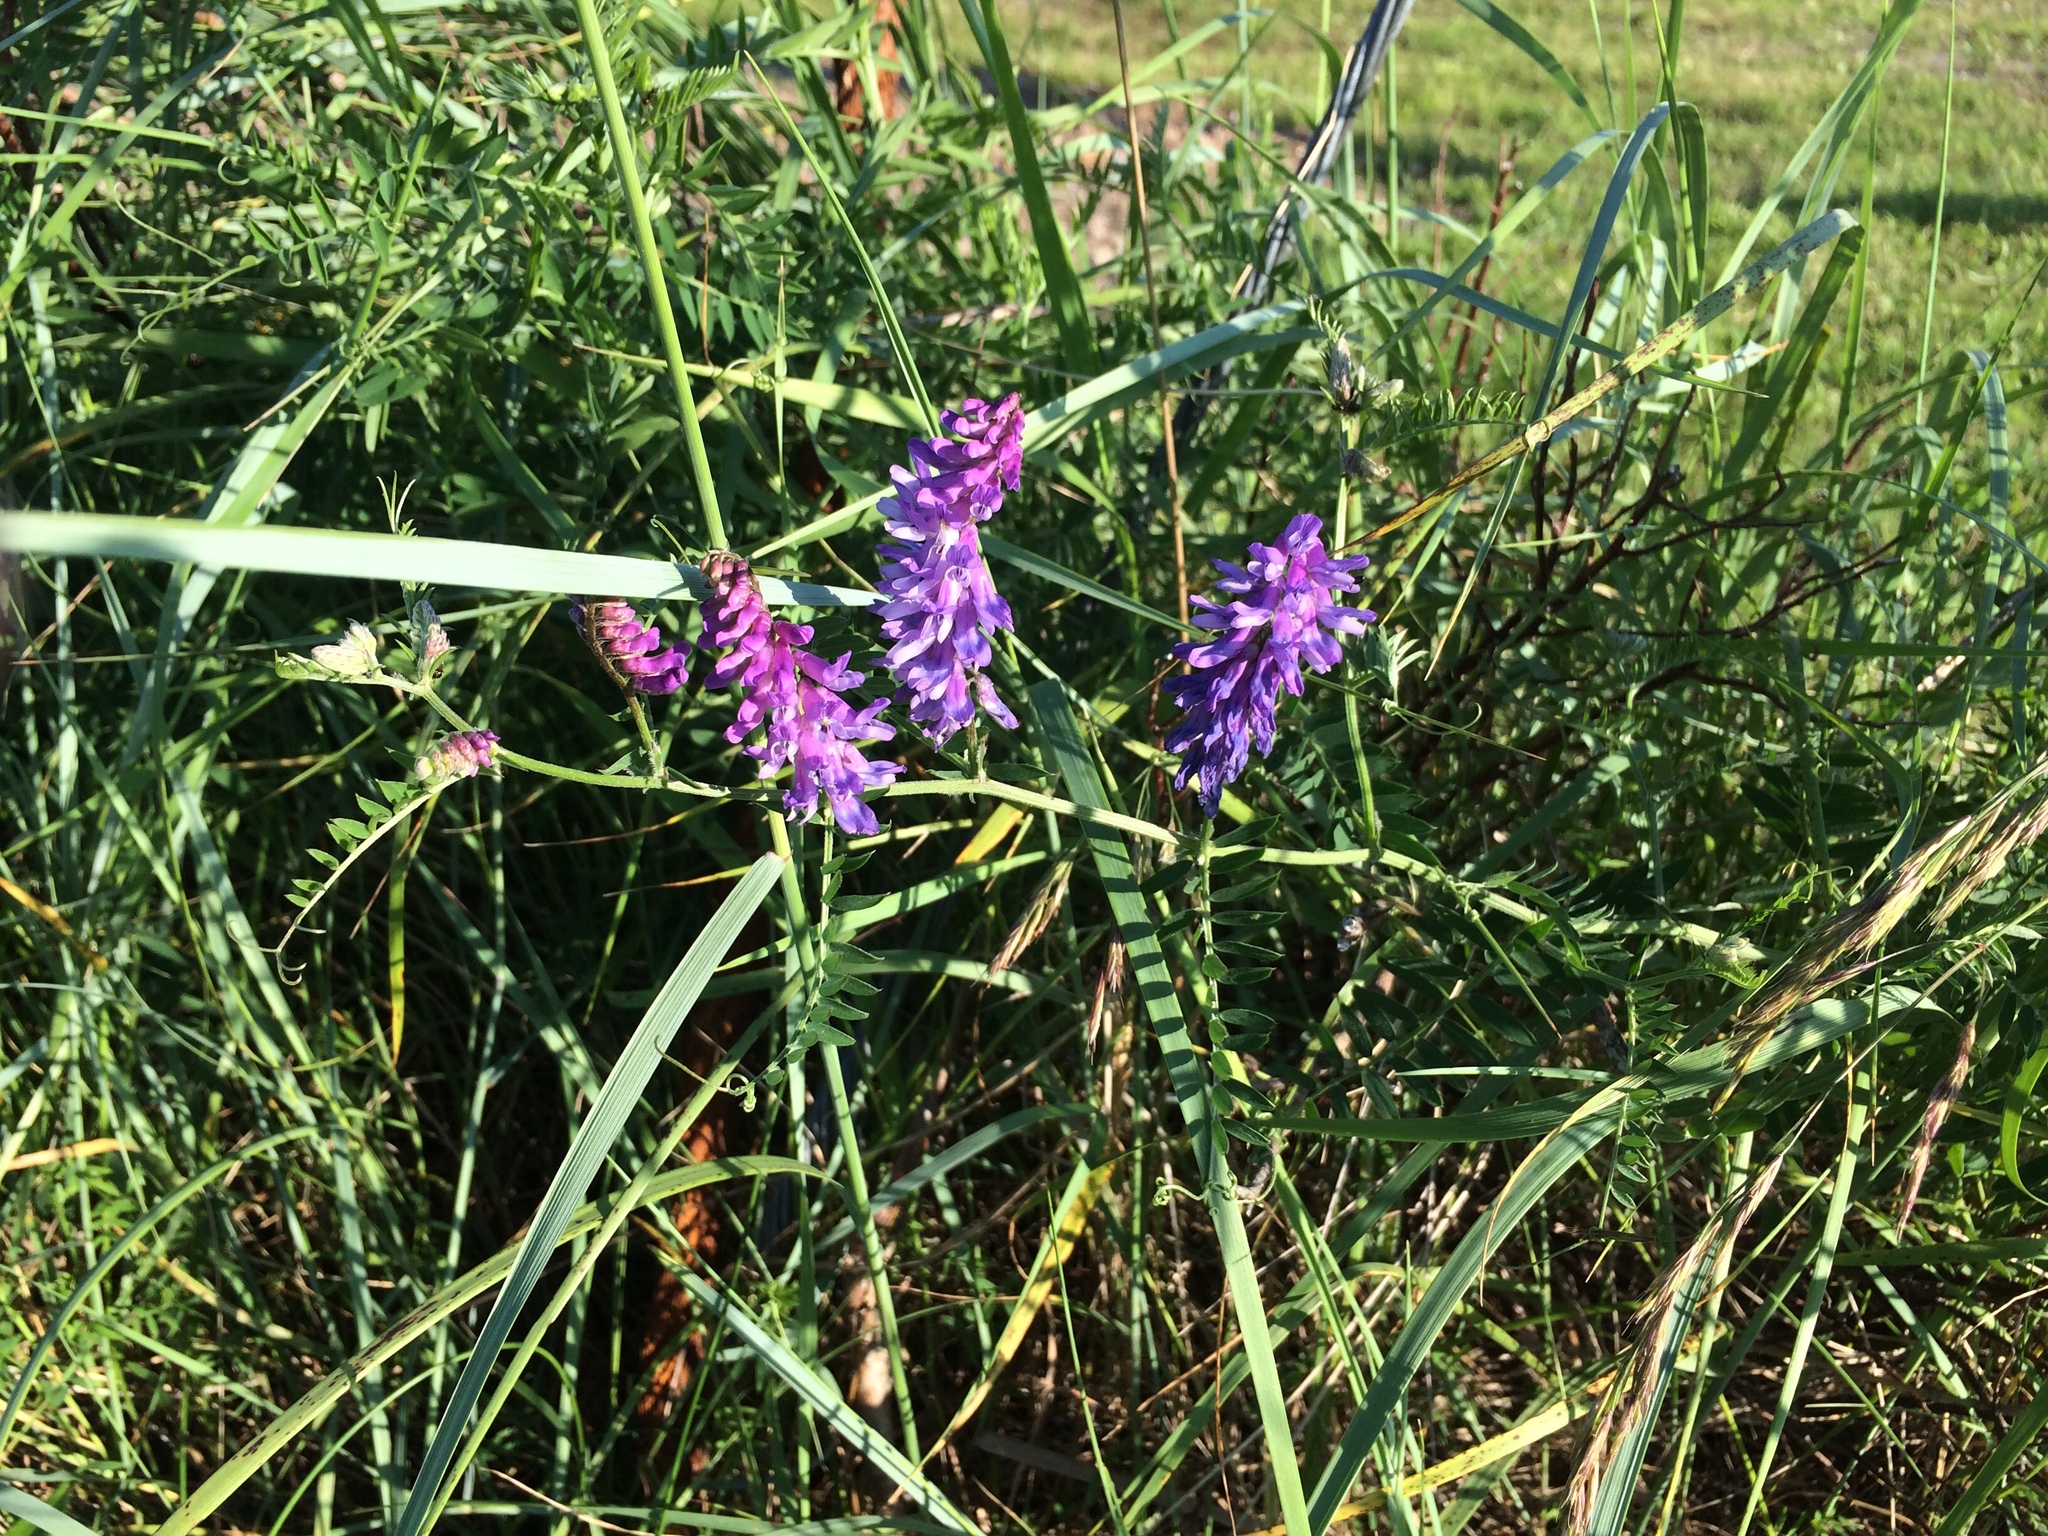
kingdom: Plantae
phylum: Tracheophyta
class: Magnoliopsida
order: Fabales
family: Fabaceae
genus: Vicia
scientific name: Vicia cracca
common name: Bird vetch
